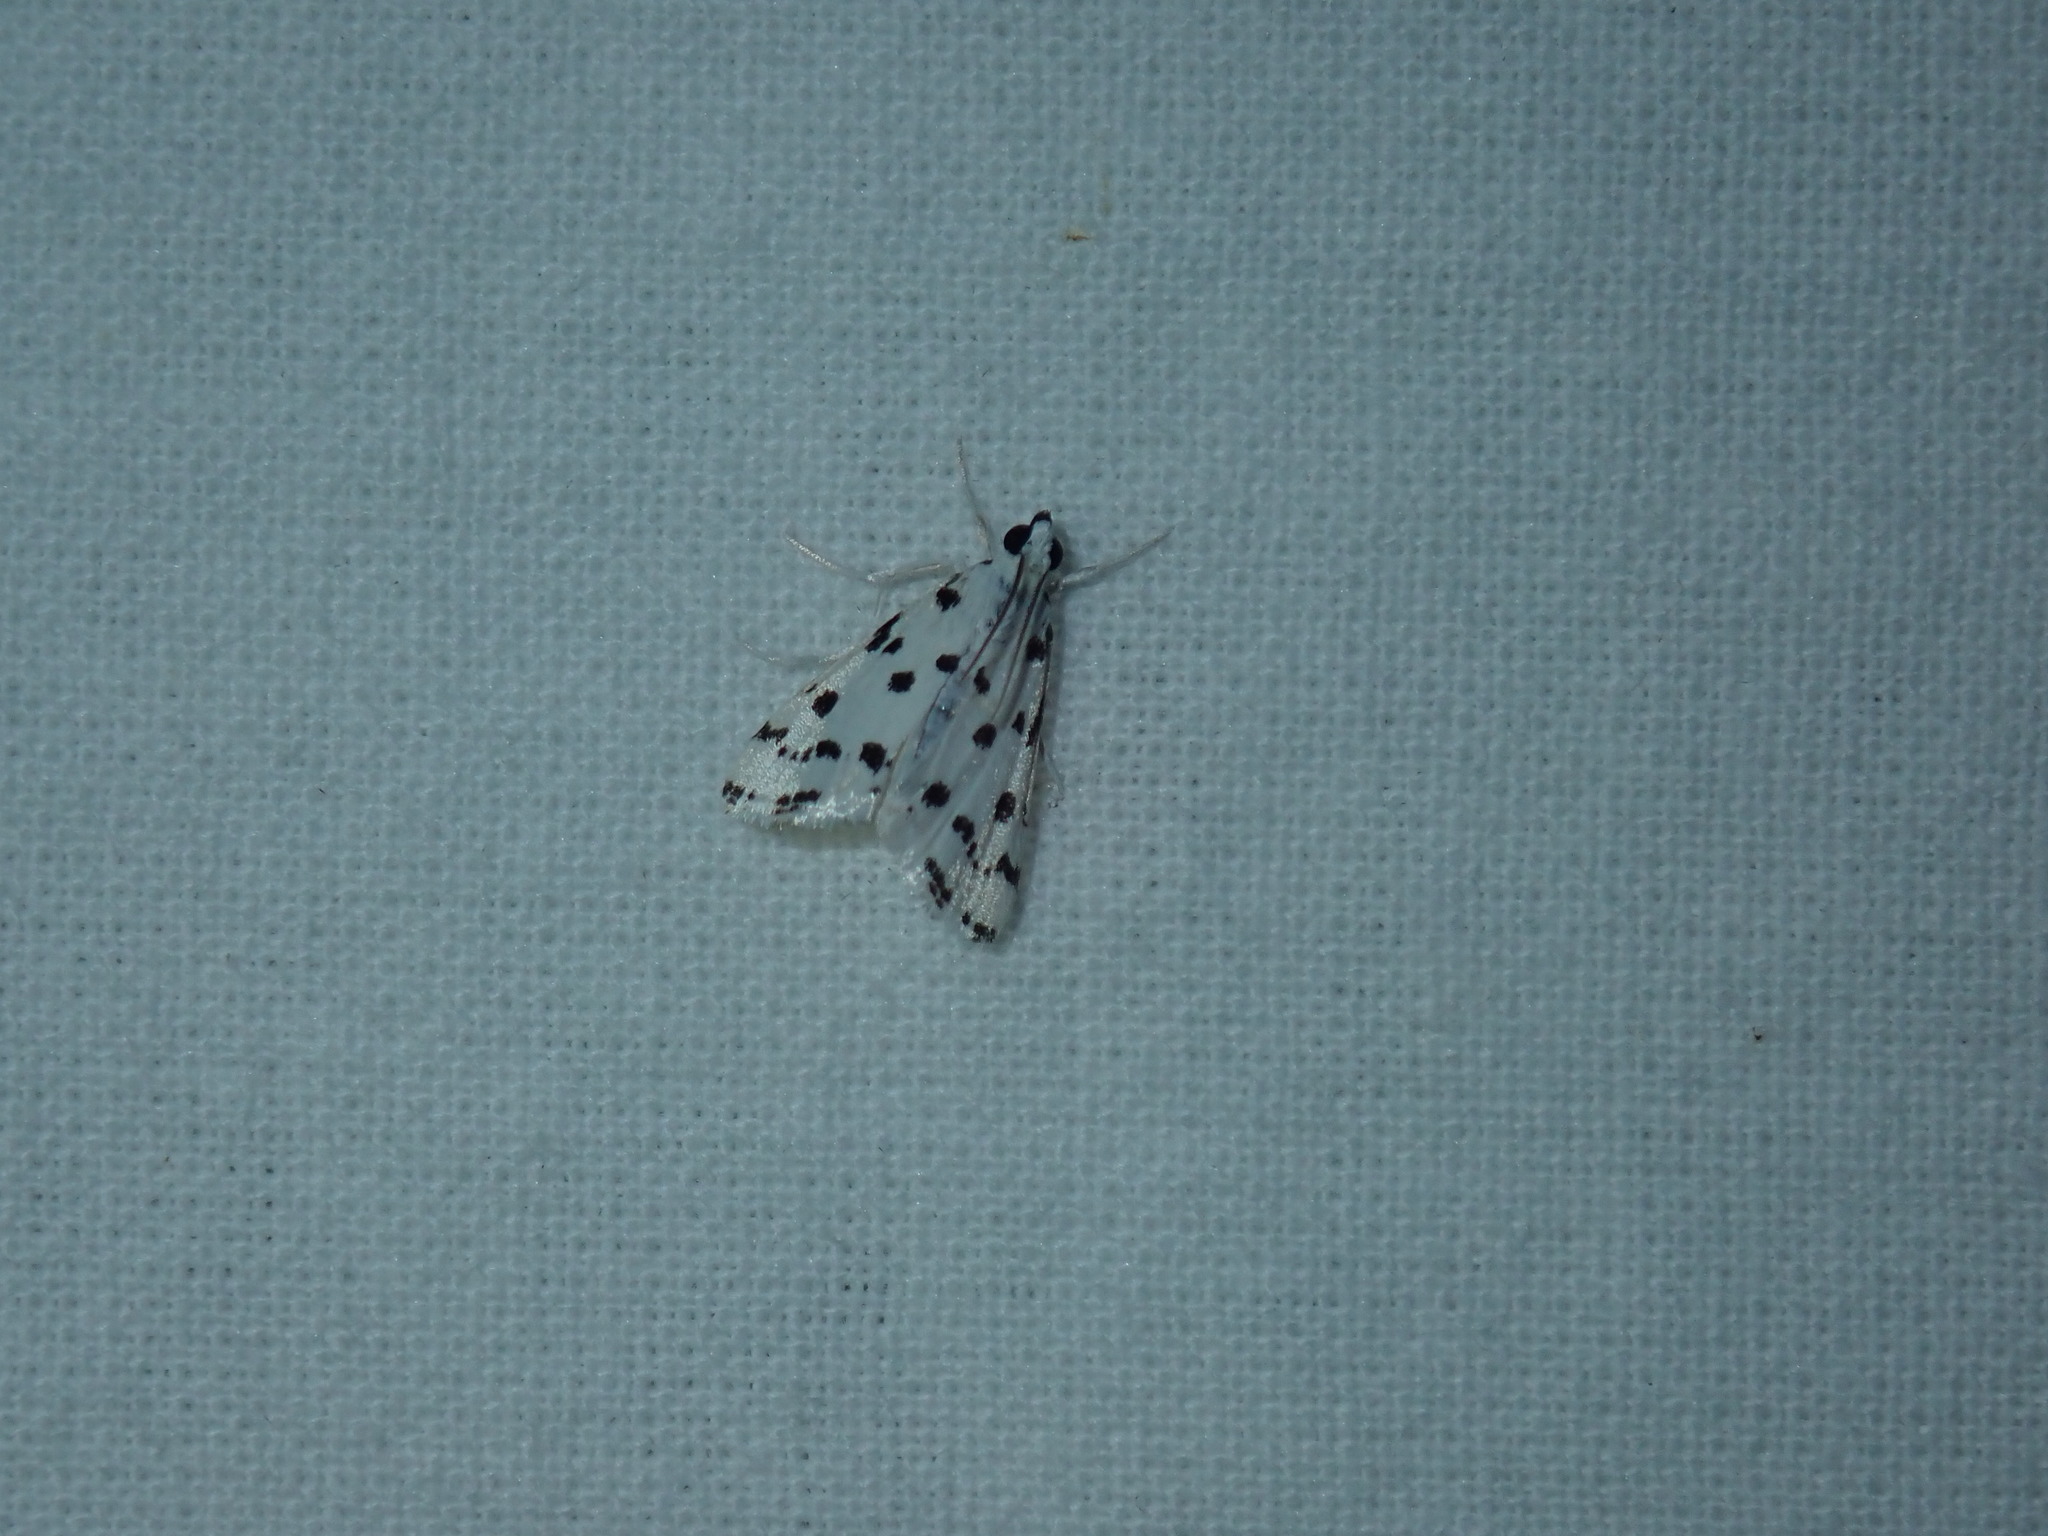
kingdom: Animalia
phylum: Arthropoda
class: Insecta
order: Lepidoptera
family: Crambidae
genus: Eustixia
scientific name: Eustixia pupula
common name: American cabbage pearl
